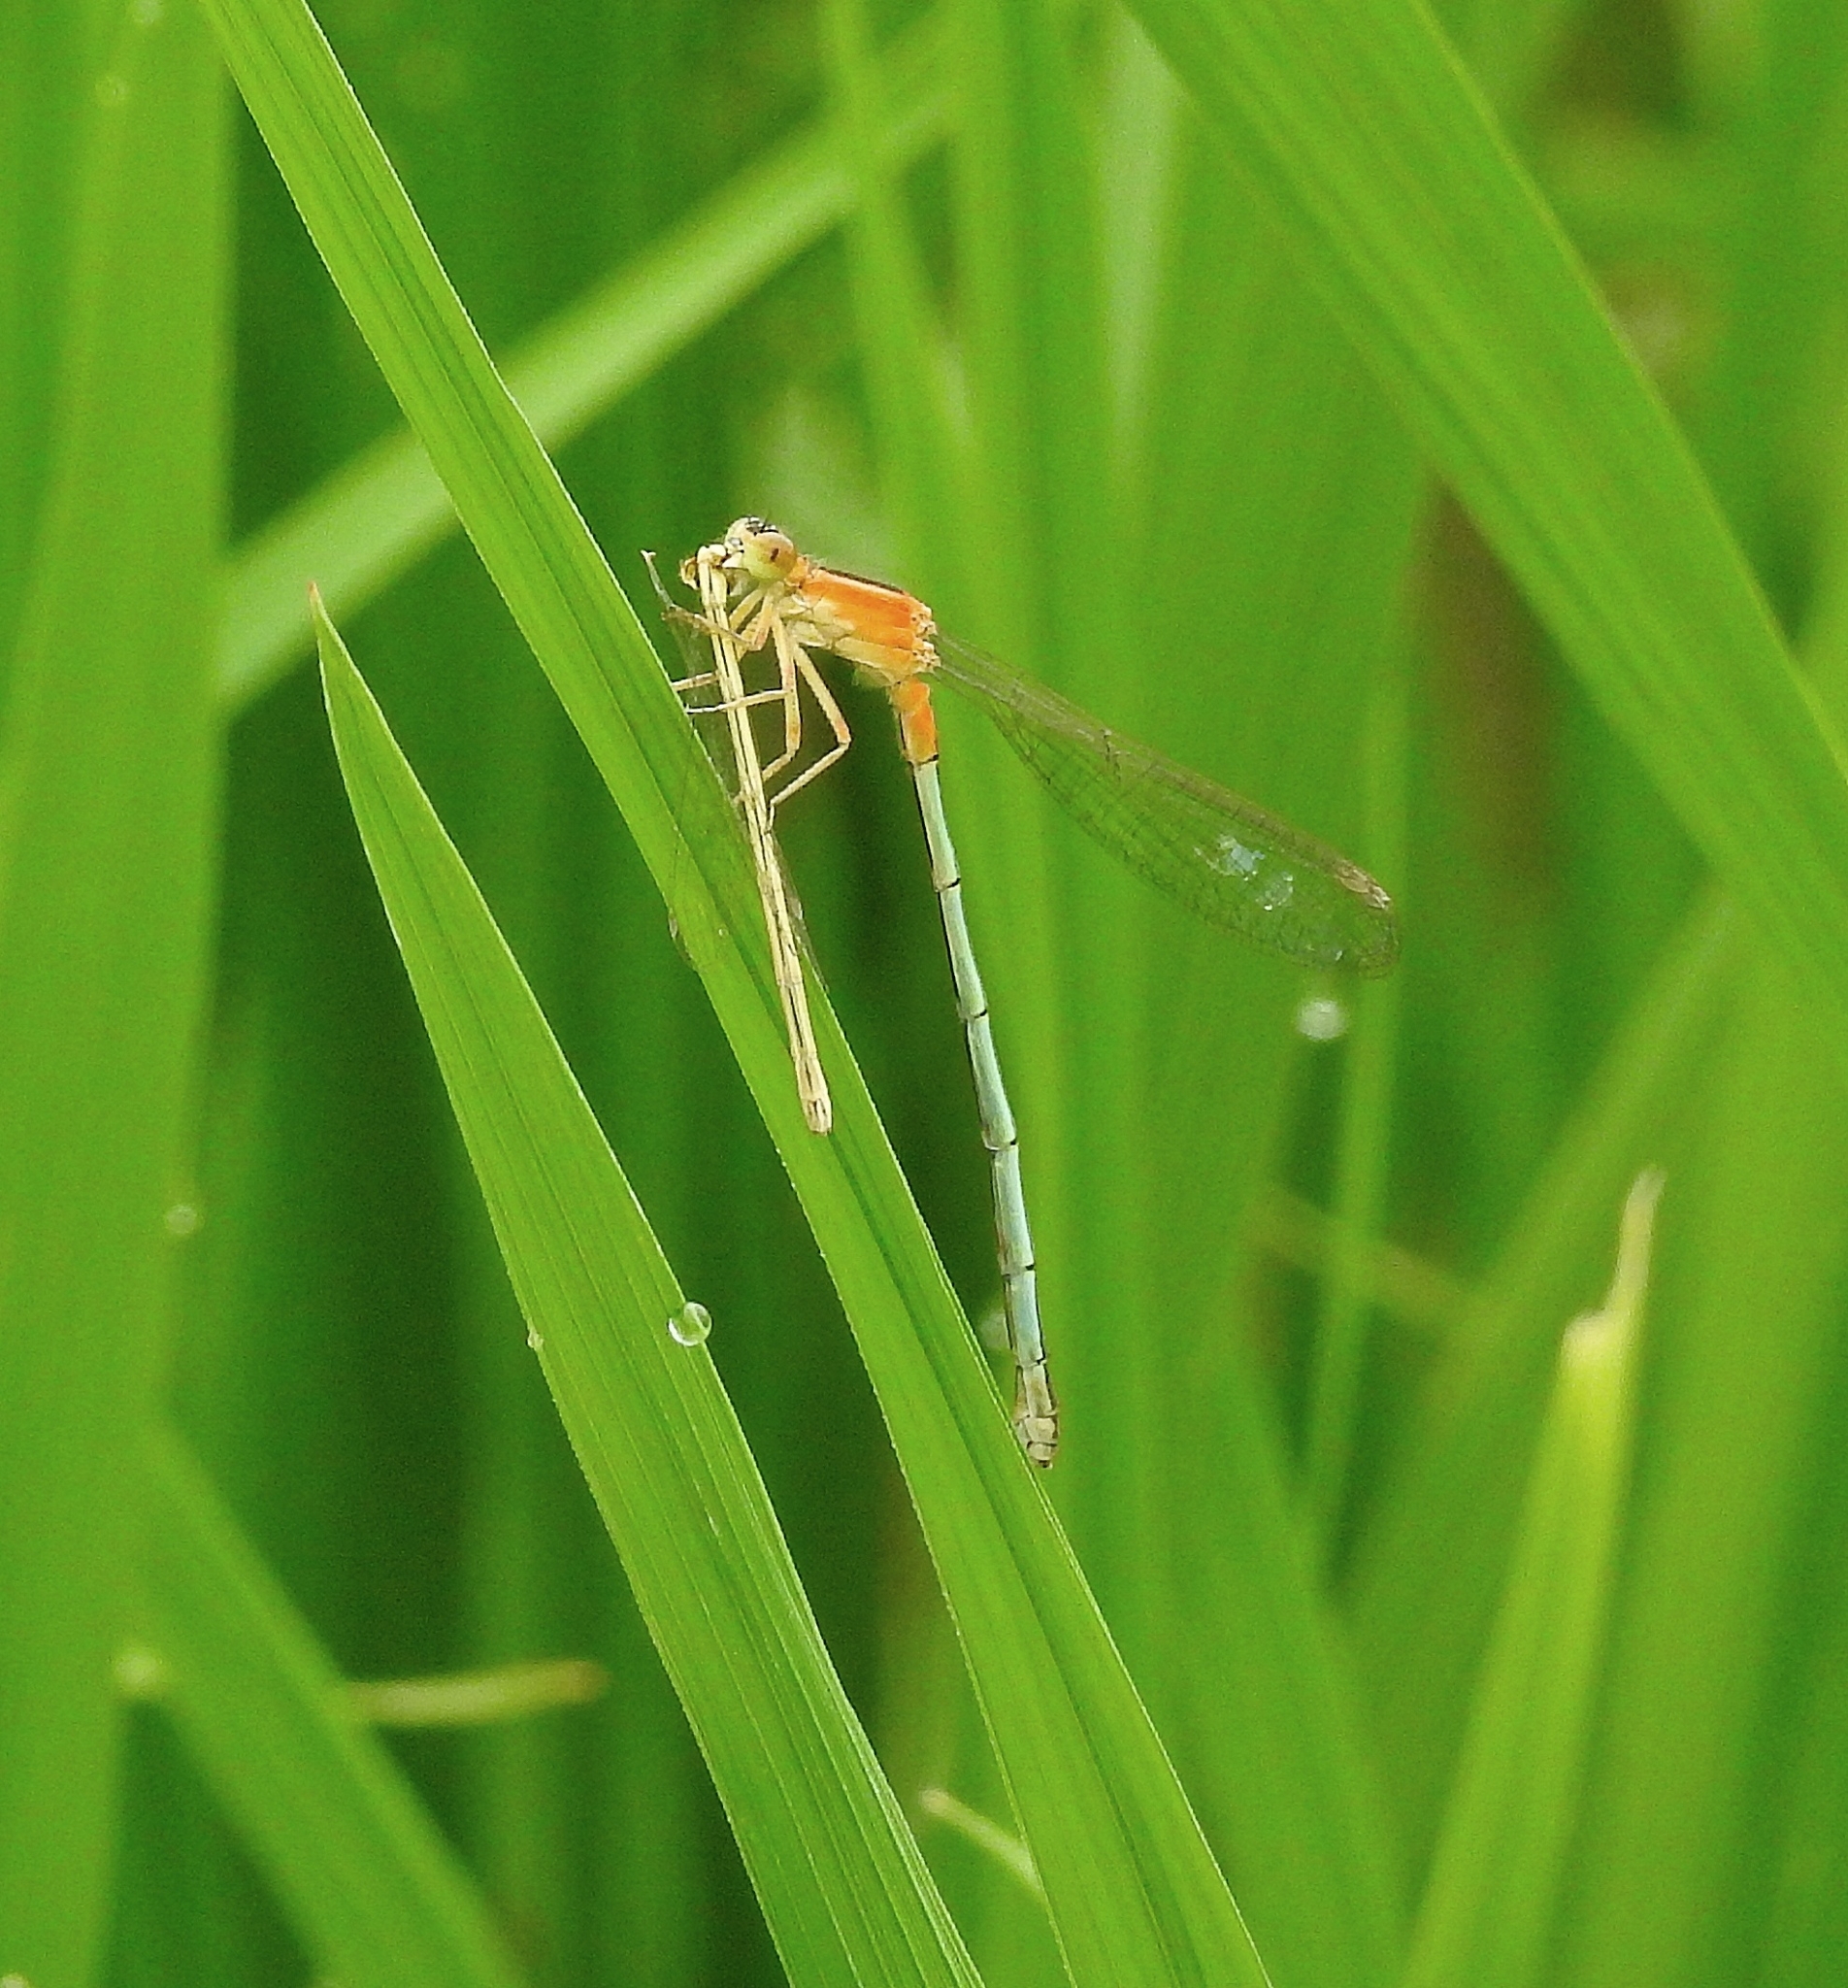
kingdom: Animalia
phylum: Arthropoda
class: Insecta
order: Odonata
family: Coenagrionidae
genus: Ischnura
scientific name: Ischnura senegalensis
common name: Tropical bluetail
